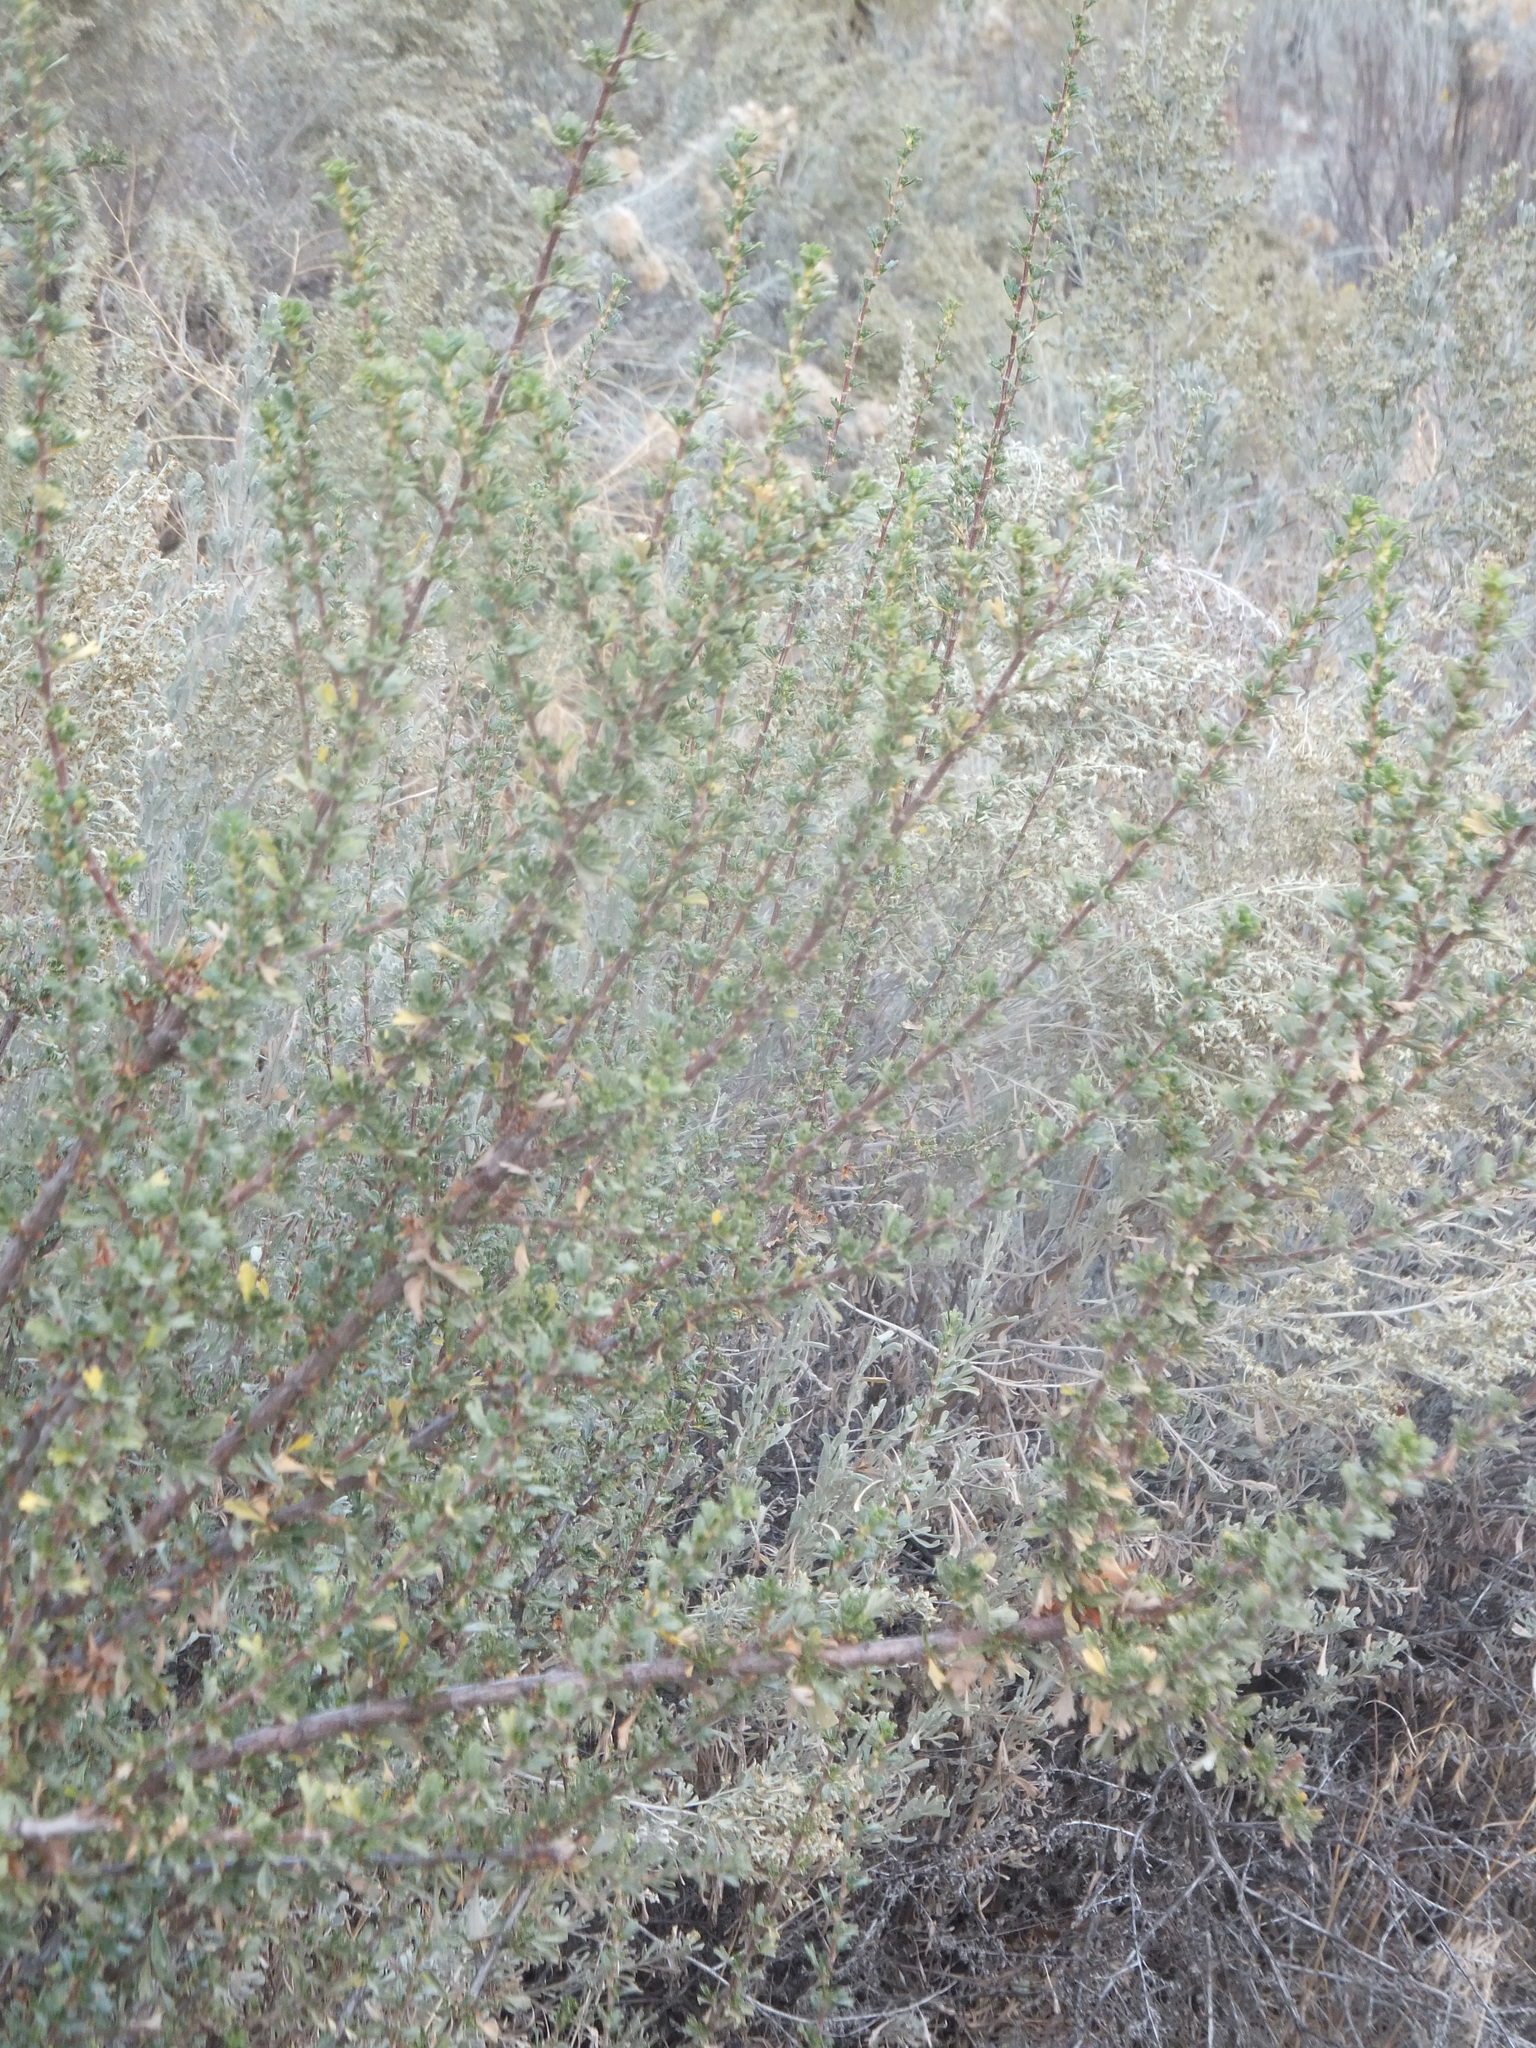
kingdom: Plantae
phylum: Tracheophyta
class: Magnoliopsida
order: Rosales
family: Rosaceae
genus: Purshia
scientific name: Purshia tridentata
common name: Antelope bitterbrush
